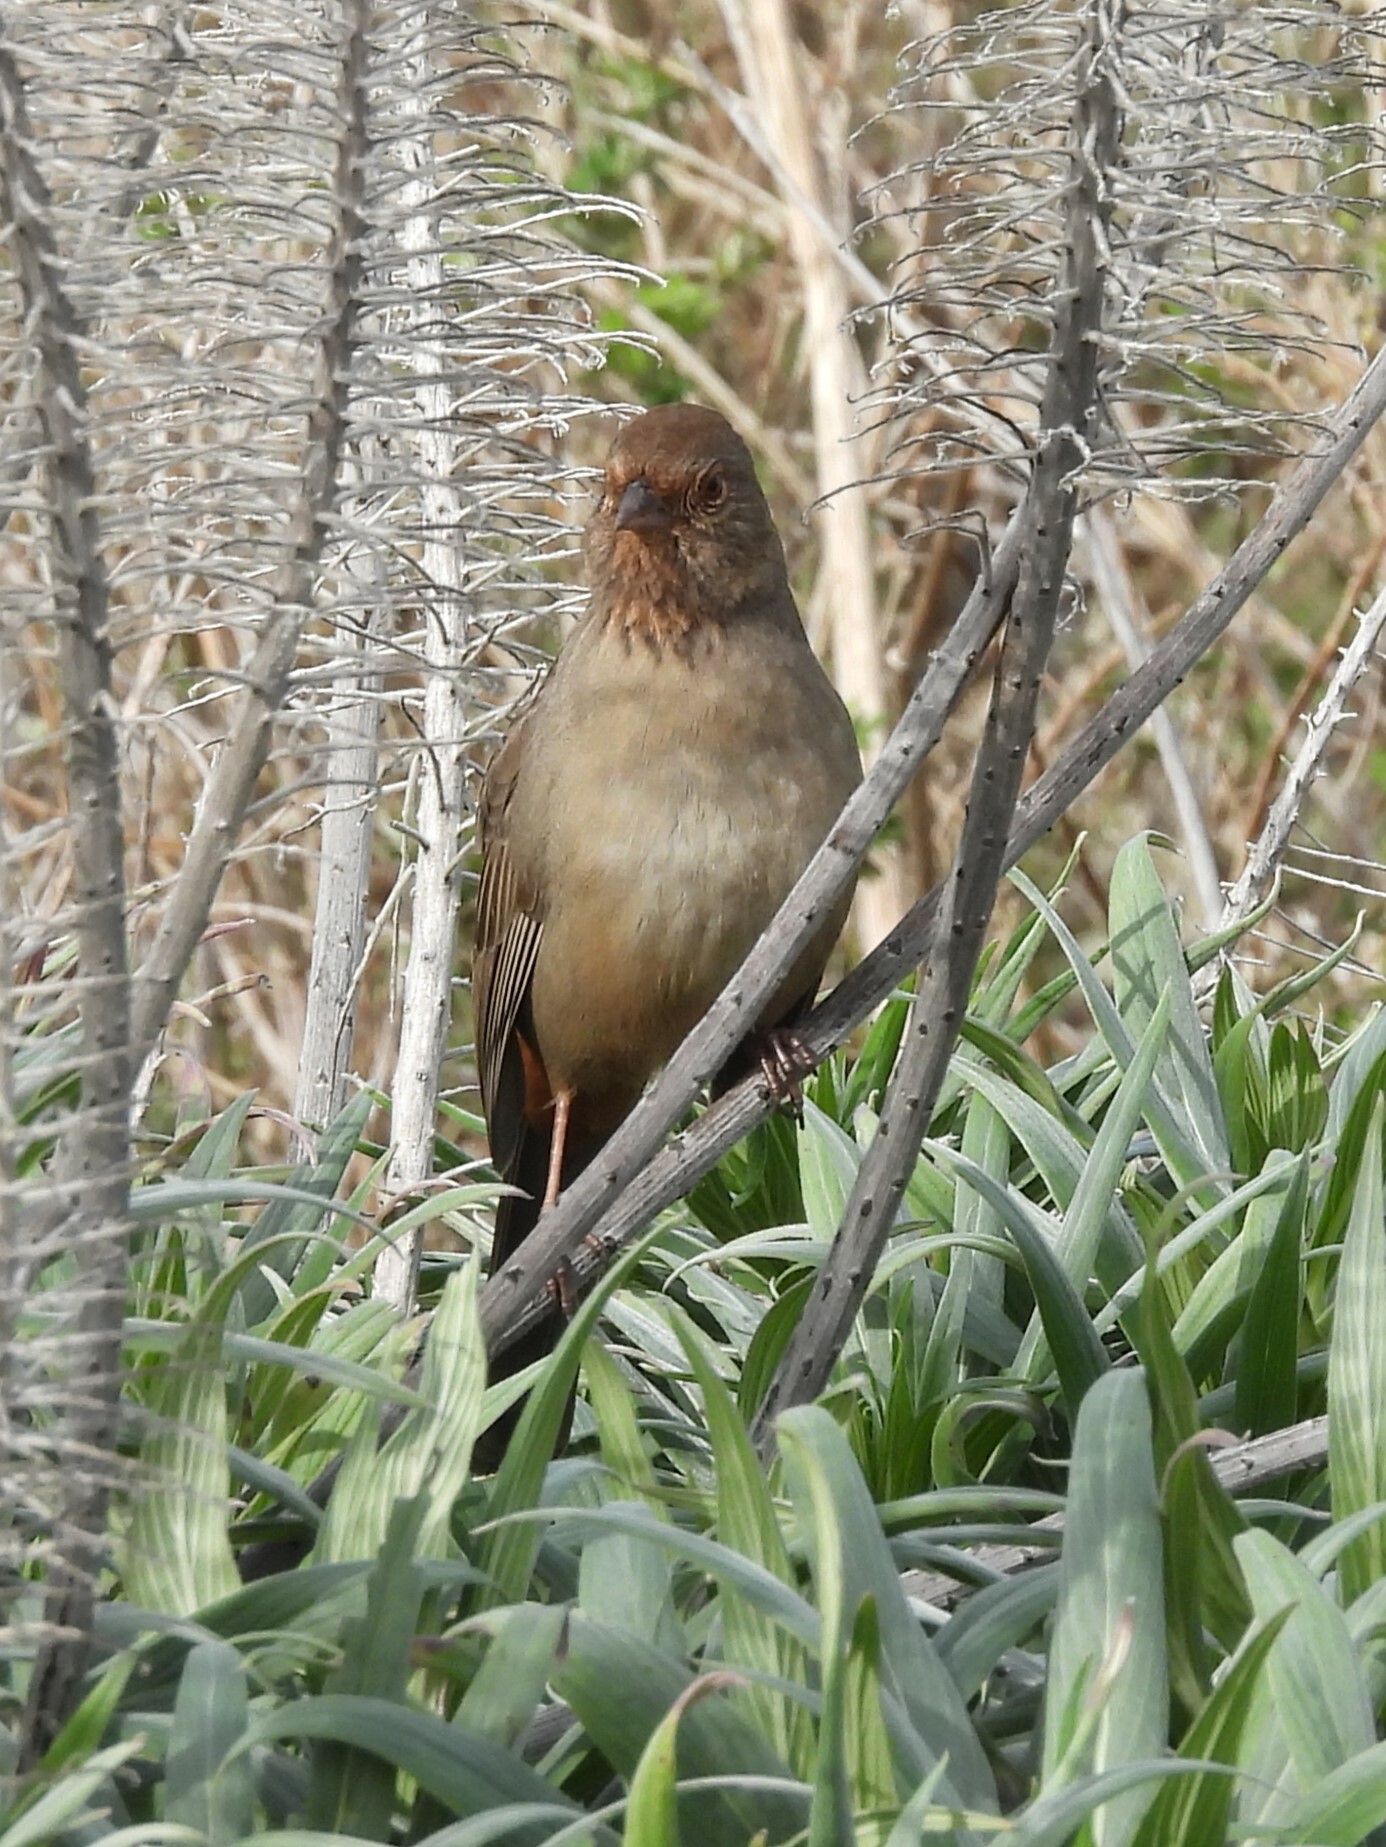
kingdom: Animalia
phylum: Chordata
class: Aves
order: Passeriformes
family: Passerellidae
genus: Melozone
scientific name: Melozone crissalis
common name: California towhee
